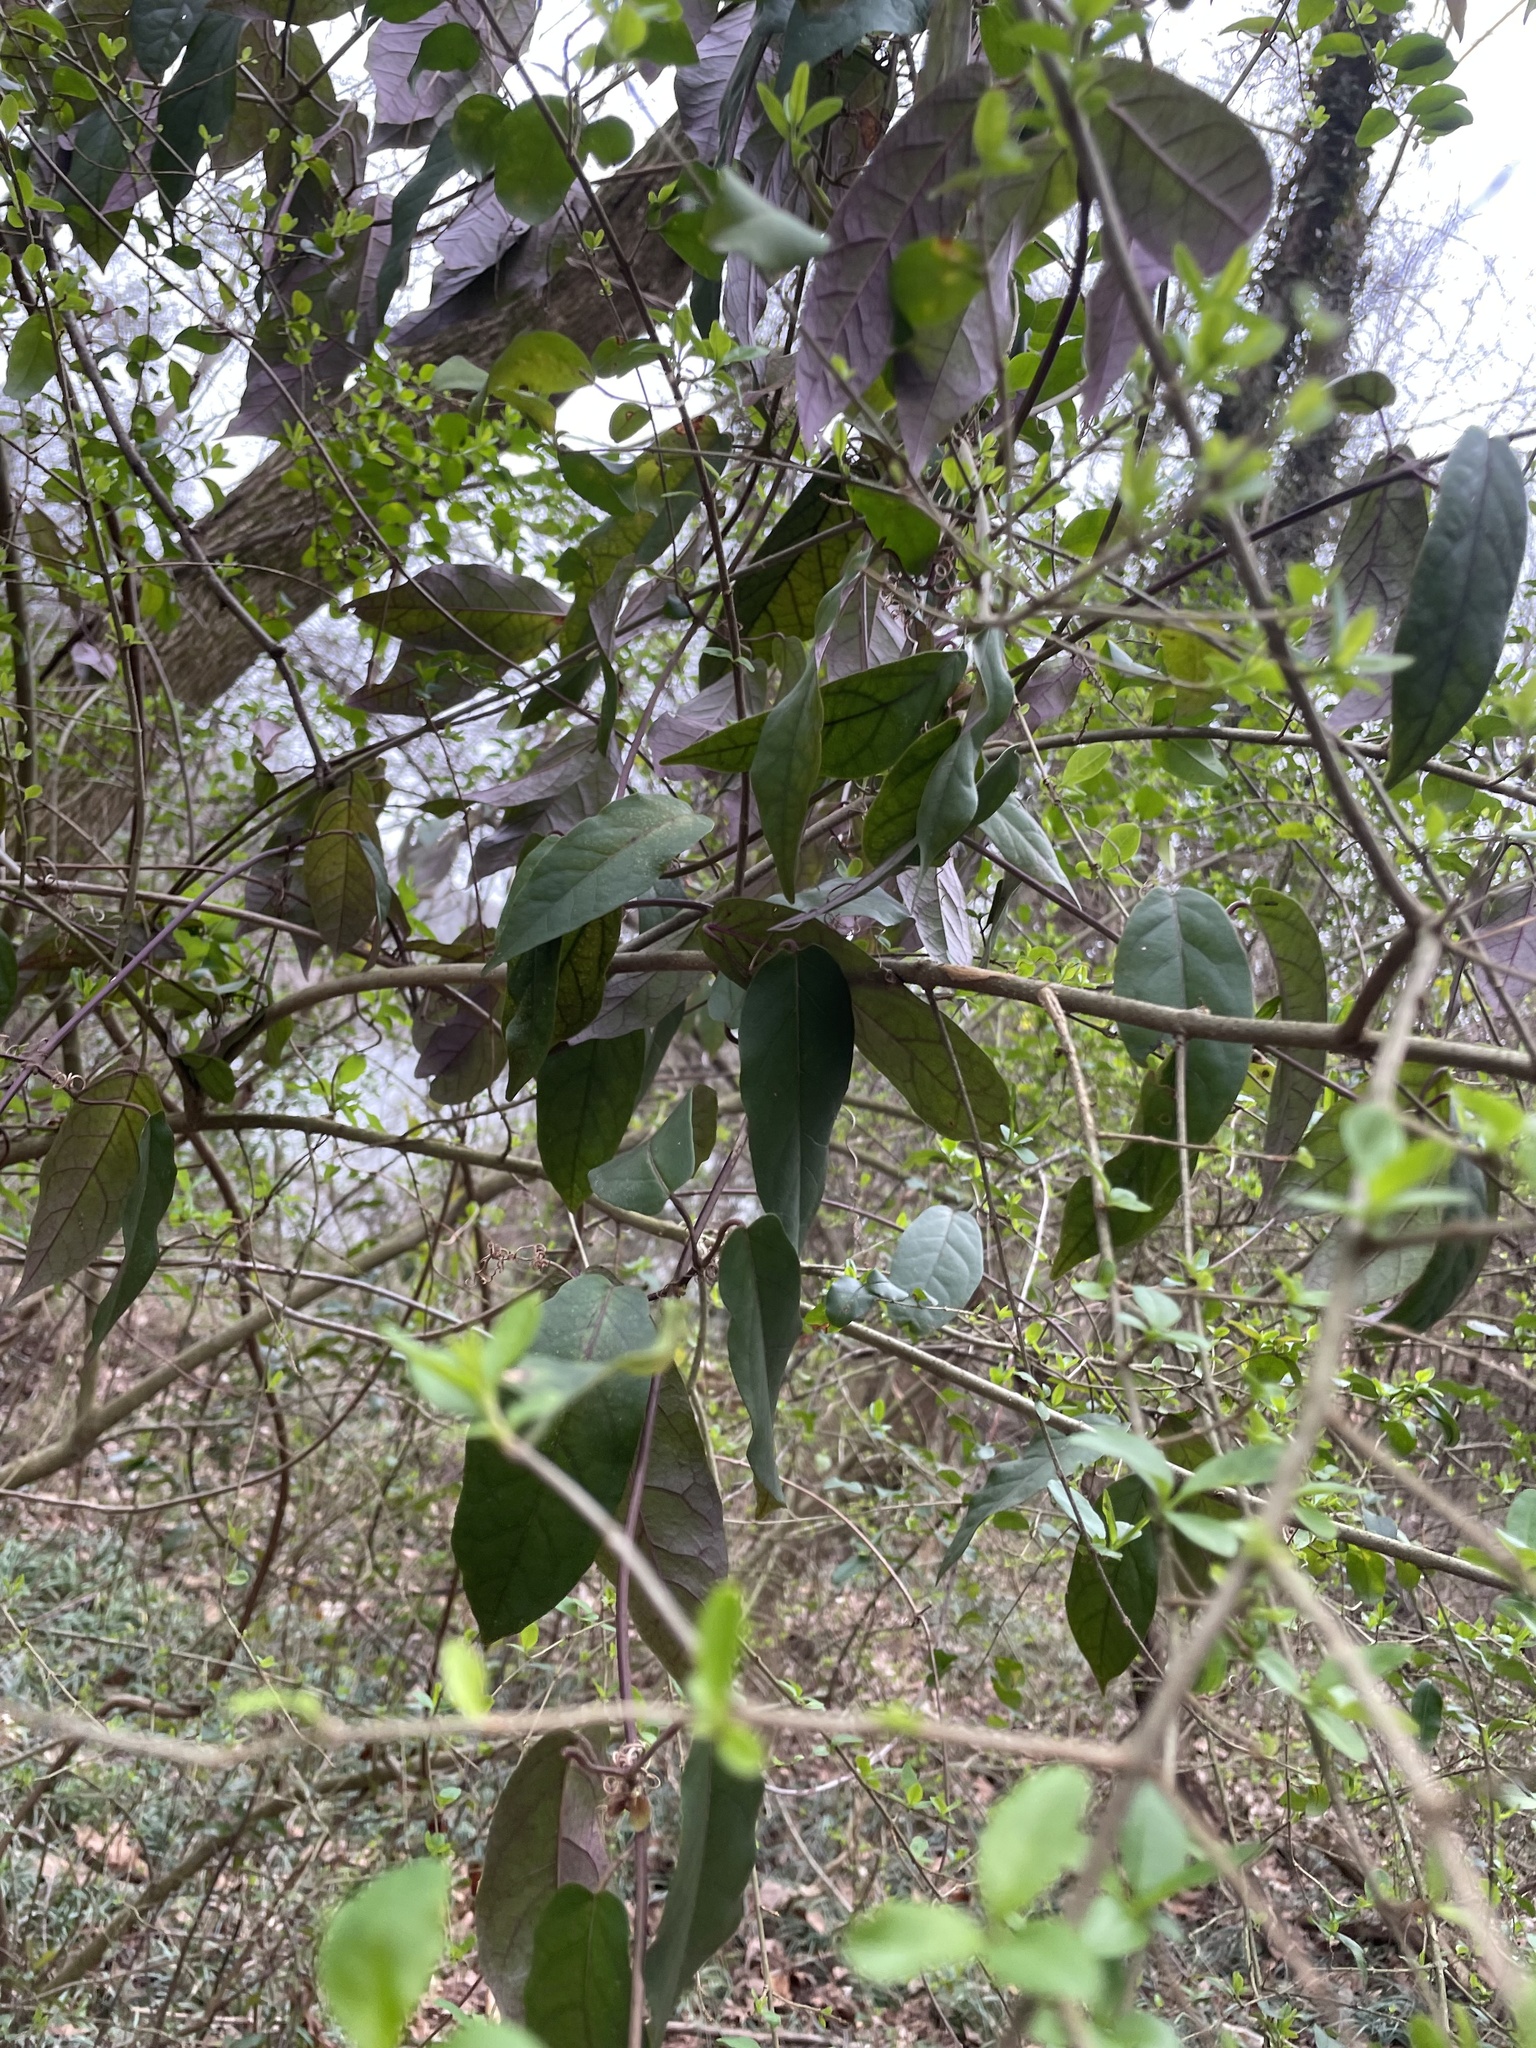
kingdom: Plantae
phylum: Tracheophyta
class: Magnoliopsida
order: Lamiales
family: Bignoniaceae
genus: Bignonia
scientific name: Bignonia capreolata
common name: Crossvine
